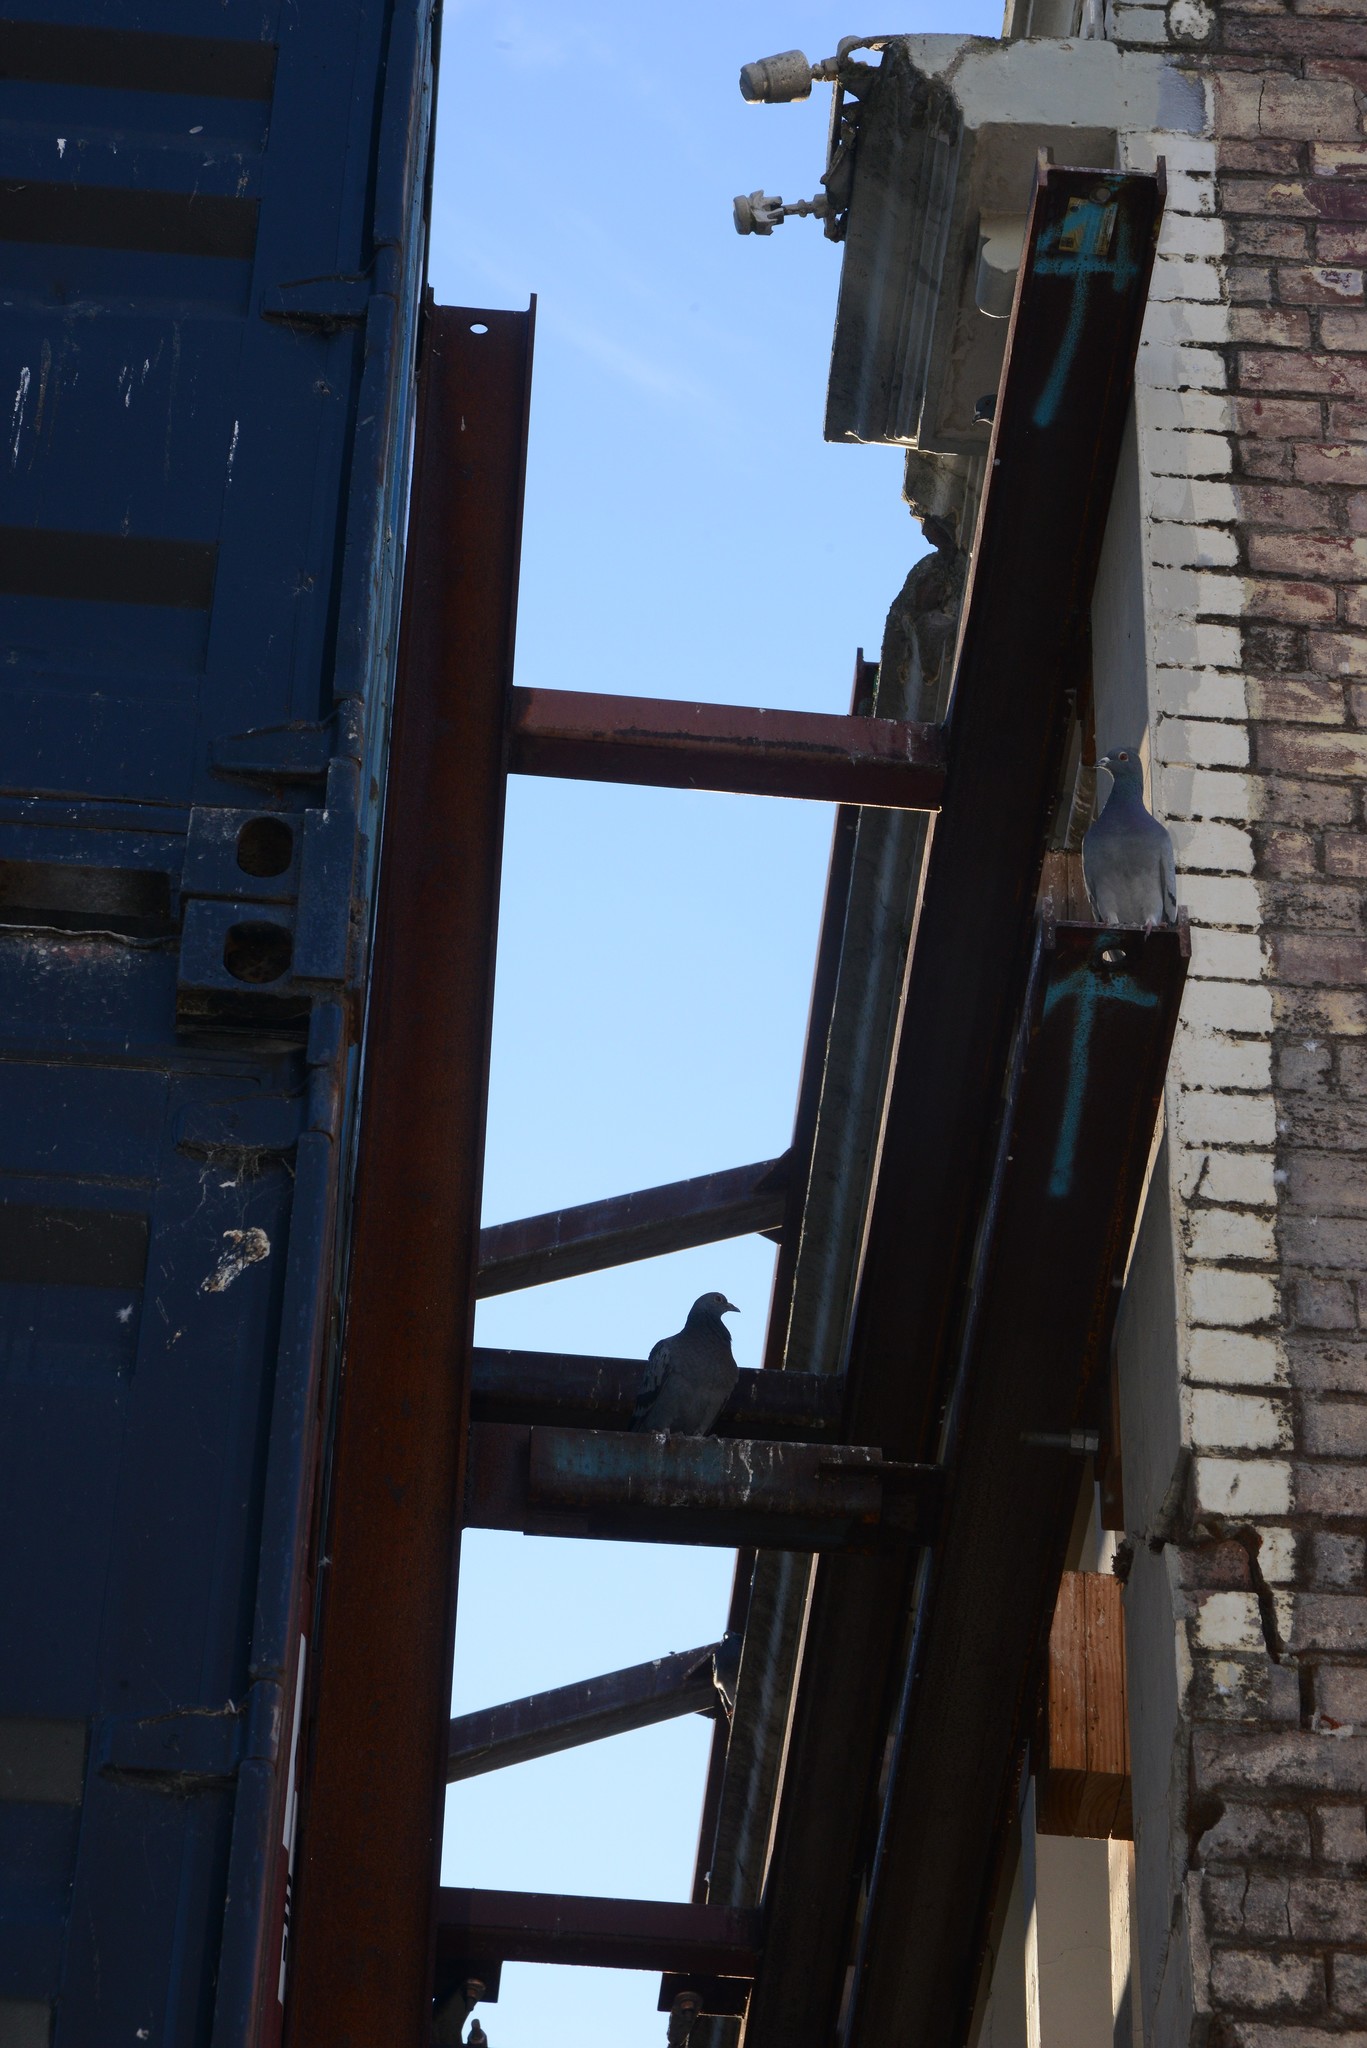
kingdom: Animalia
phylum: Chordata
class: Aves
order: Columbiformes
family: Columbidae
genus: Columba
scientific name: Columba livia
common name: Rock pigeon
